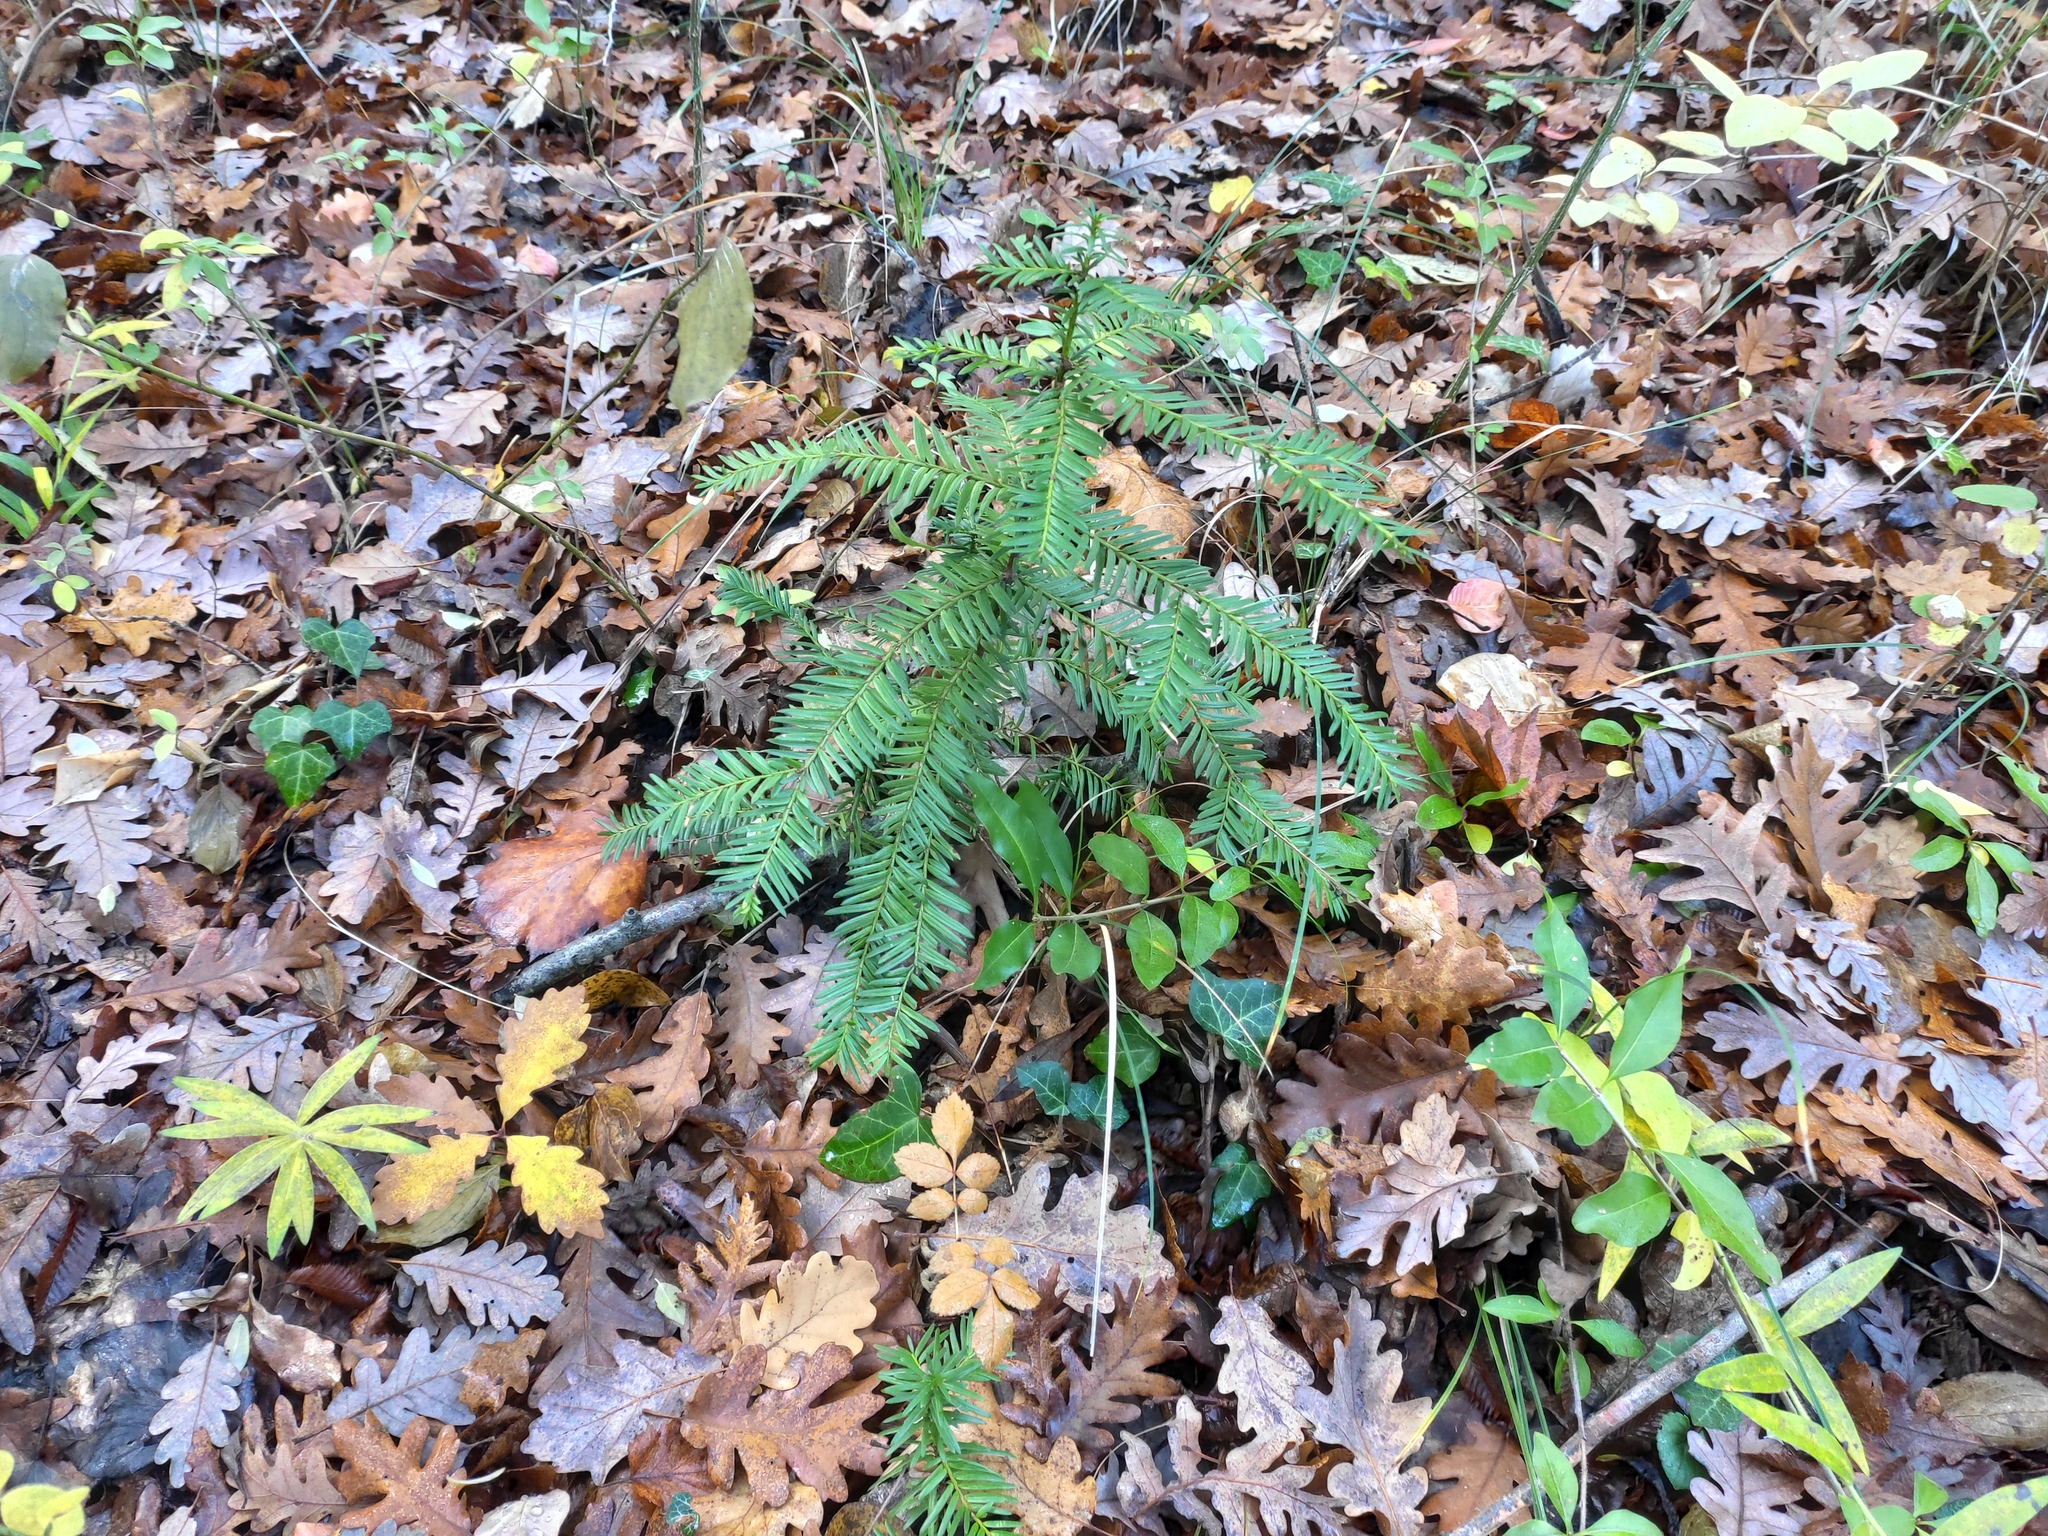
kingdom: Plantae
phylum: Tracheophyta
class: Pinopsida
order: Pinales
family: Taxaceae
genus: Taxus
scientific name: Taxus baccata
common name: Yew
